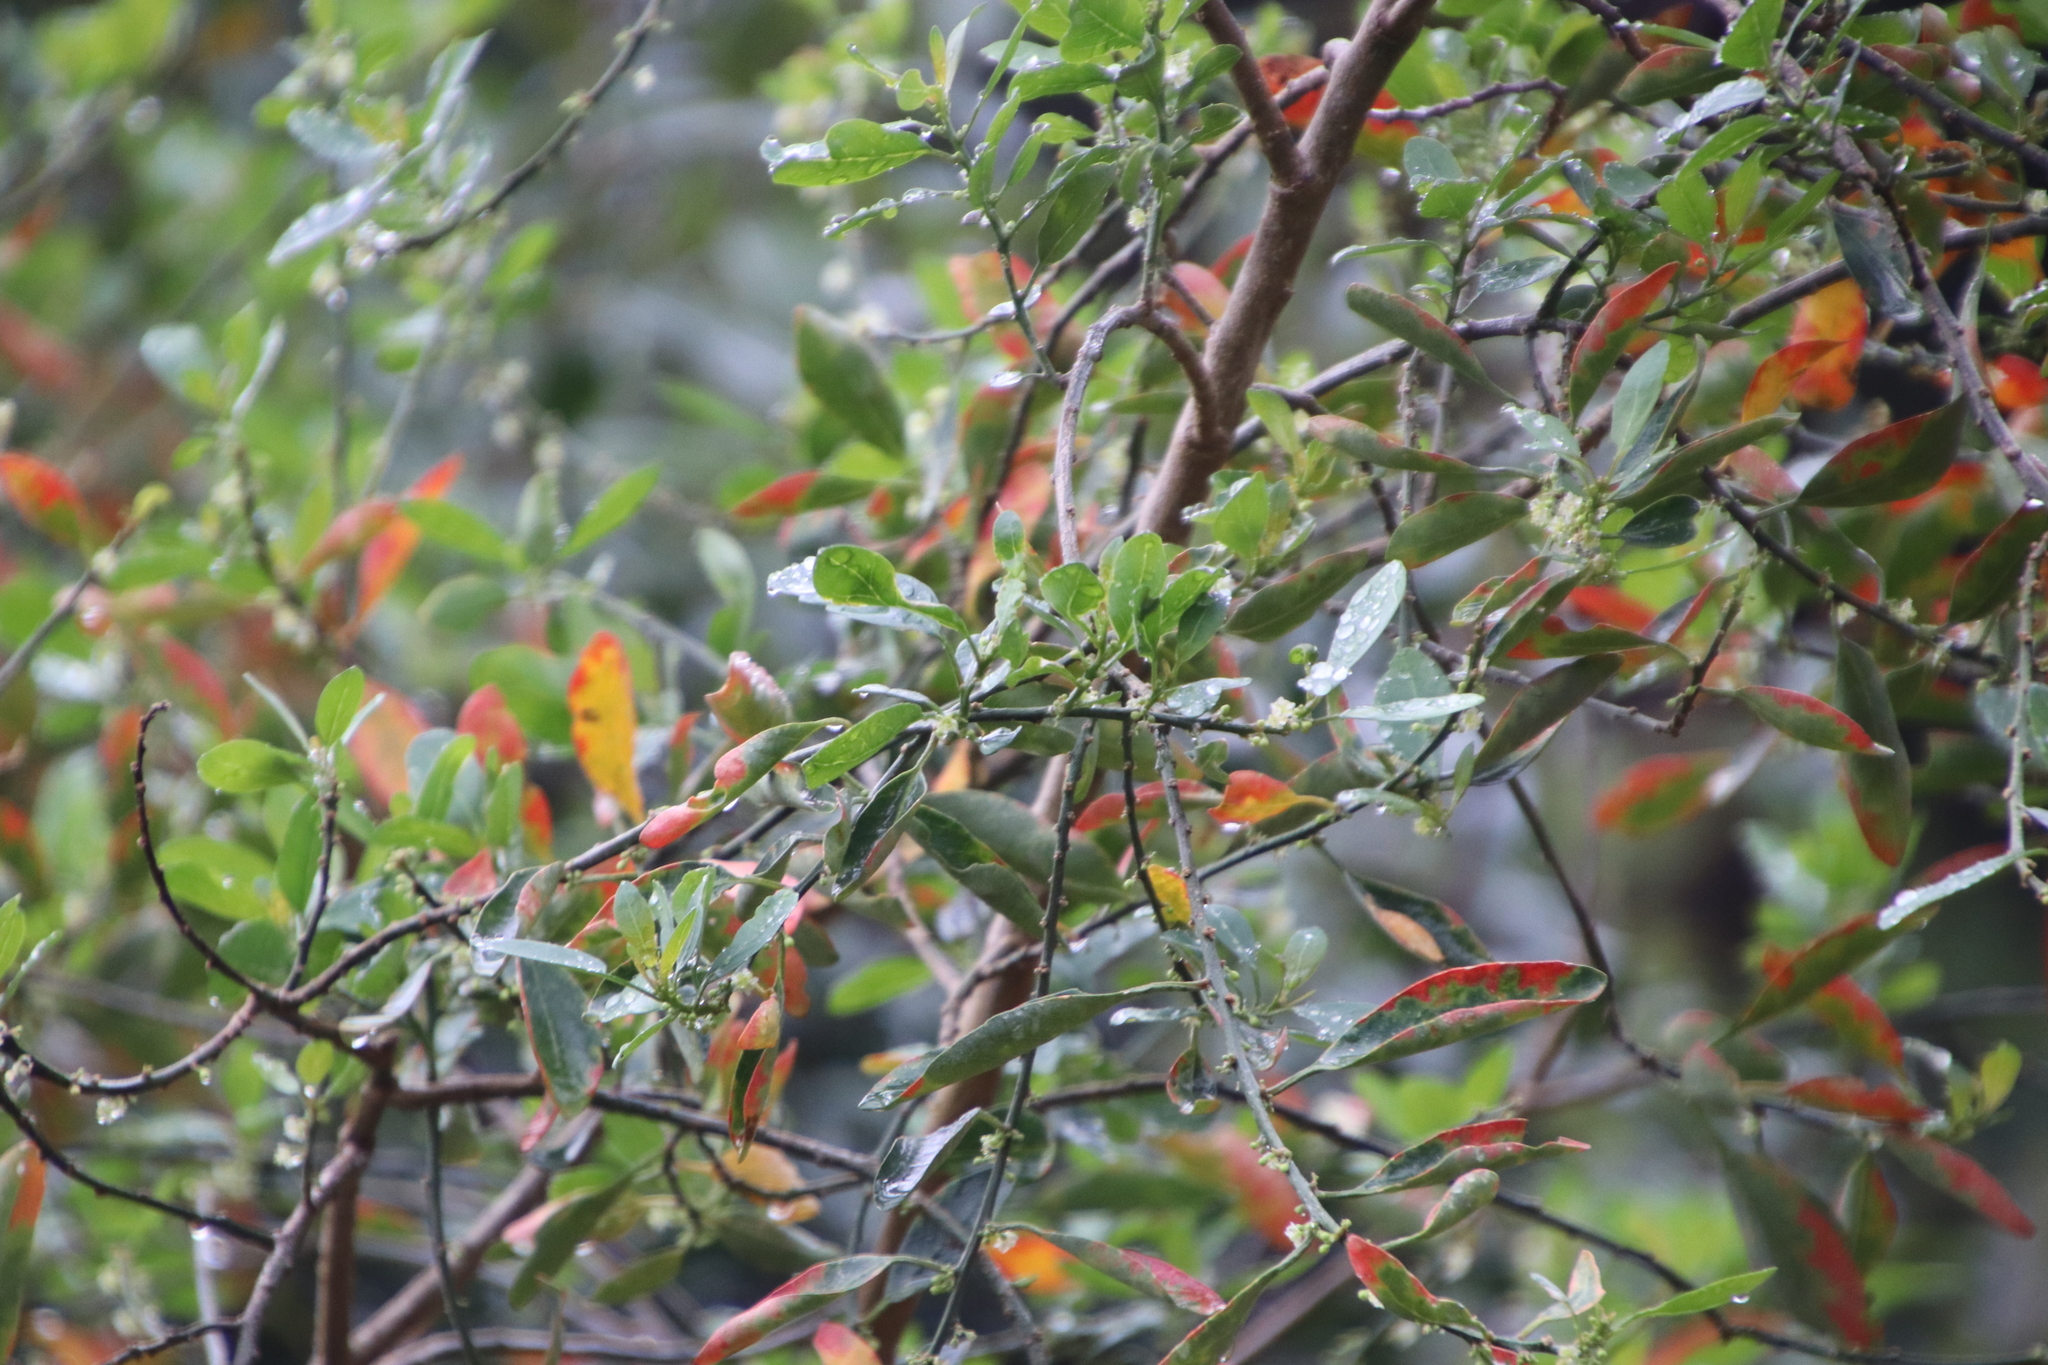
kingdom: Plantae
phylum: Tracheophyta
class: Magnoliopsida
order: Malpighiales
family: Peraceae
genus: Clutia
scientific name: Clutia pulchella
